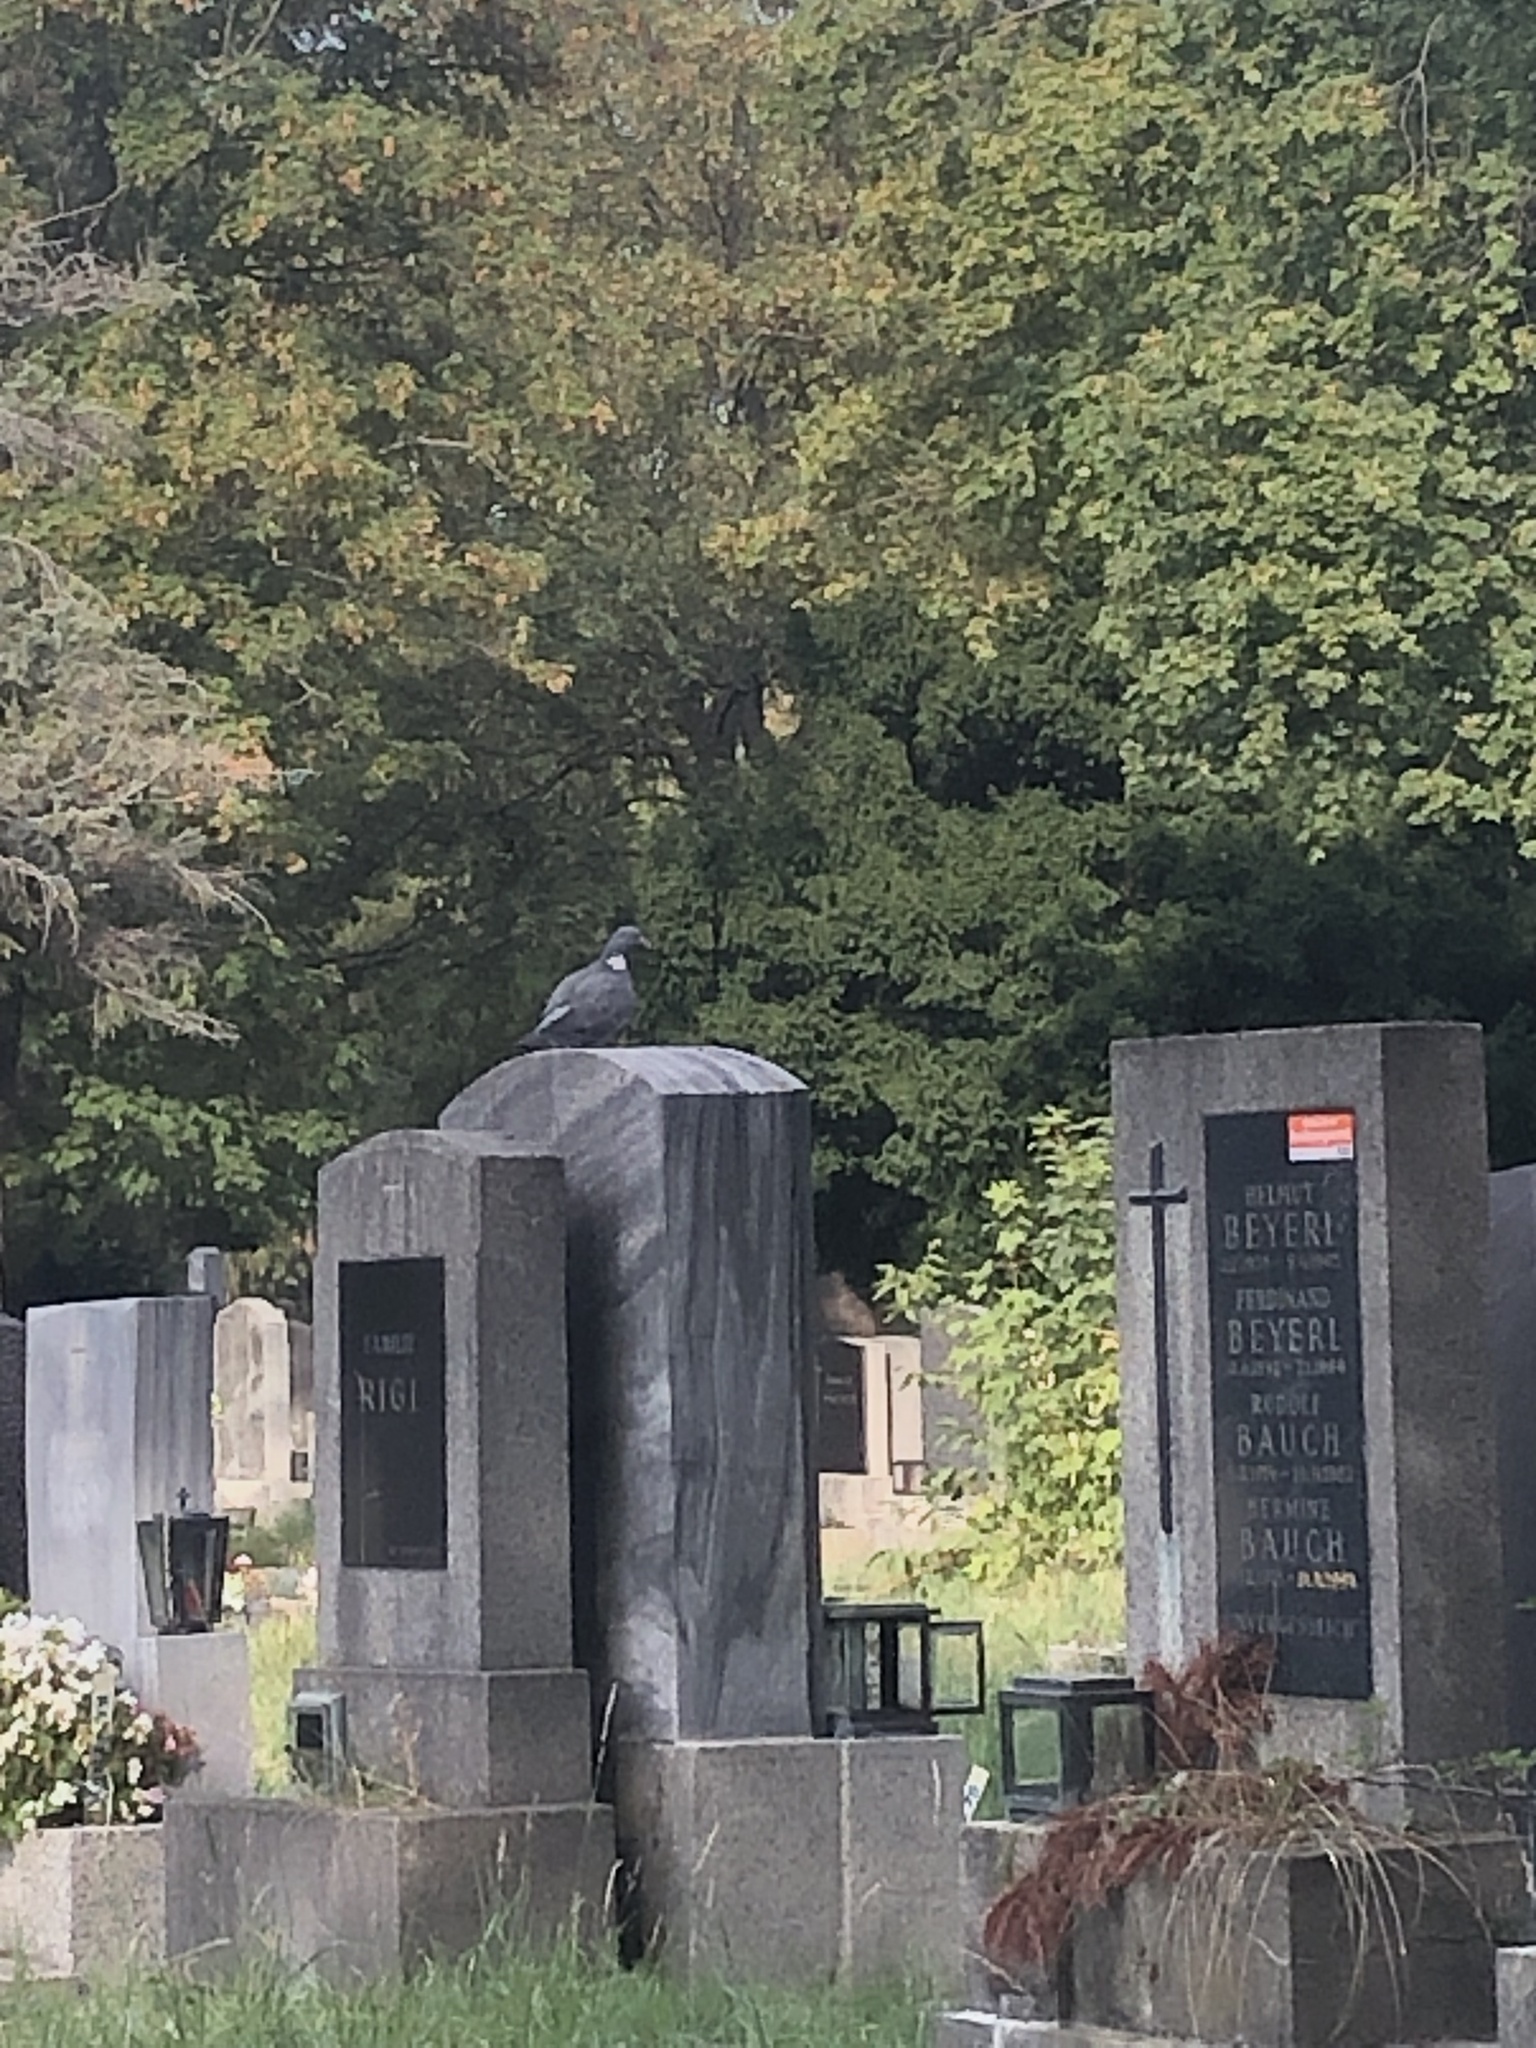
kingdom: Animalia
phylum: Chordata
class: Aves
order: Columbiformes
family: Columbidae
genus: Columba
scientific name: Columba palumbus
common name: Common wood pigeon
